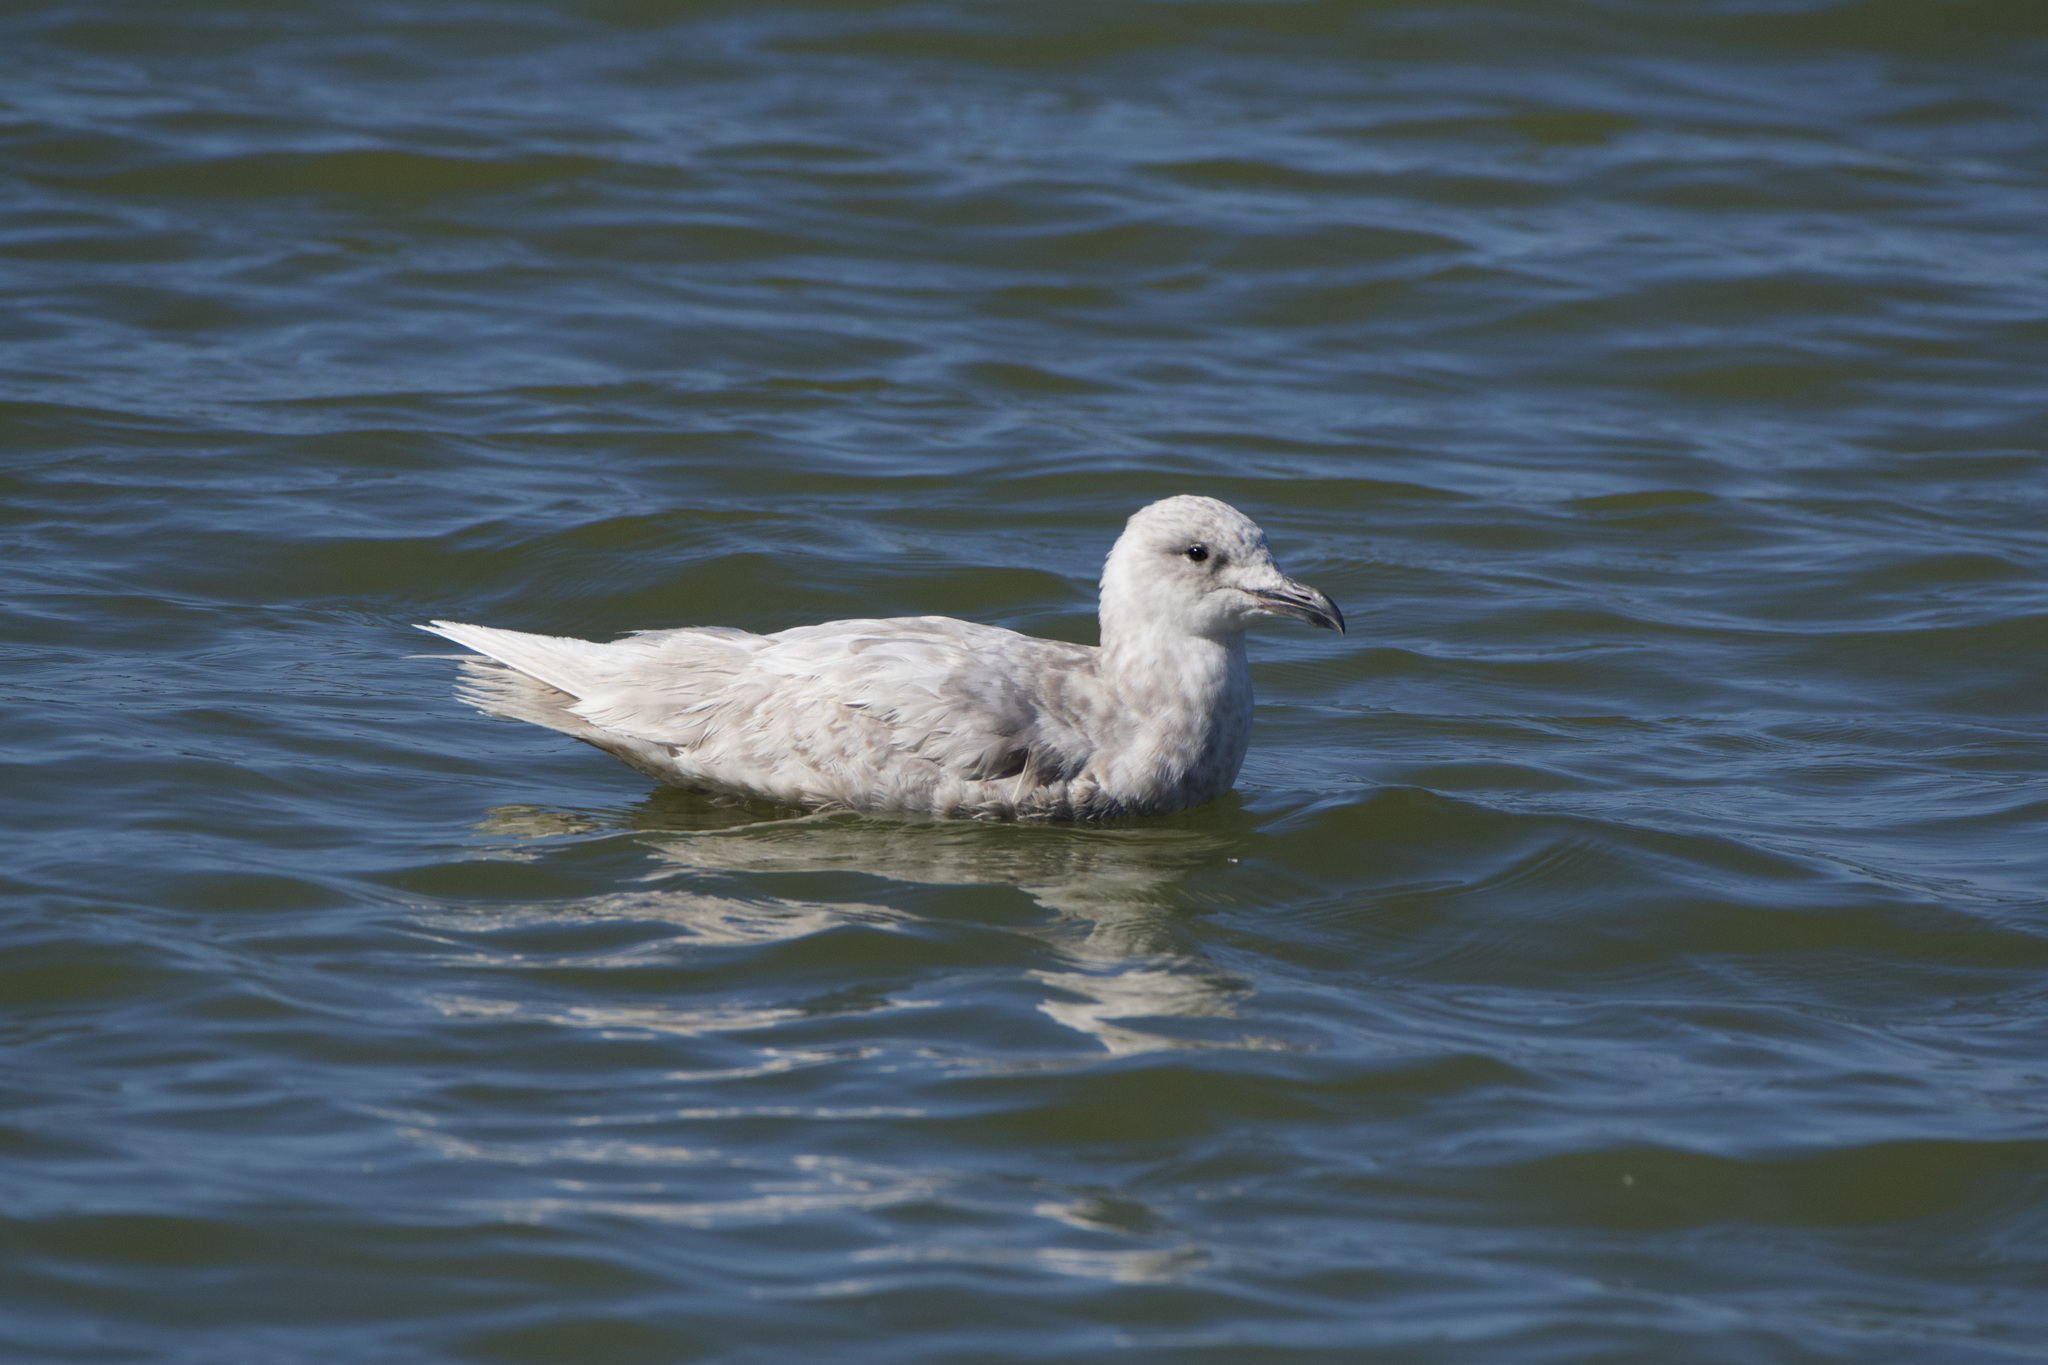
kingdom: Animalia
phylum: Chordata
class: Aves
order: Charadriiformes
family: Laridae
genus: Larus
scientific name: Larus glaucescens
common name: Glaucous-winged gull
